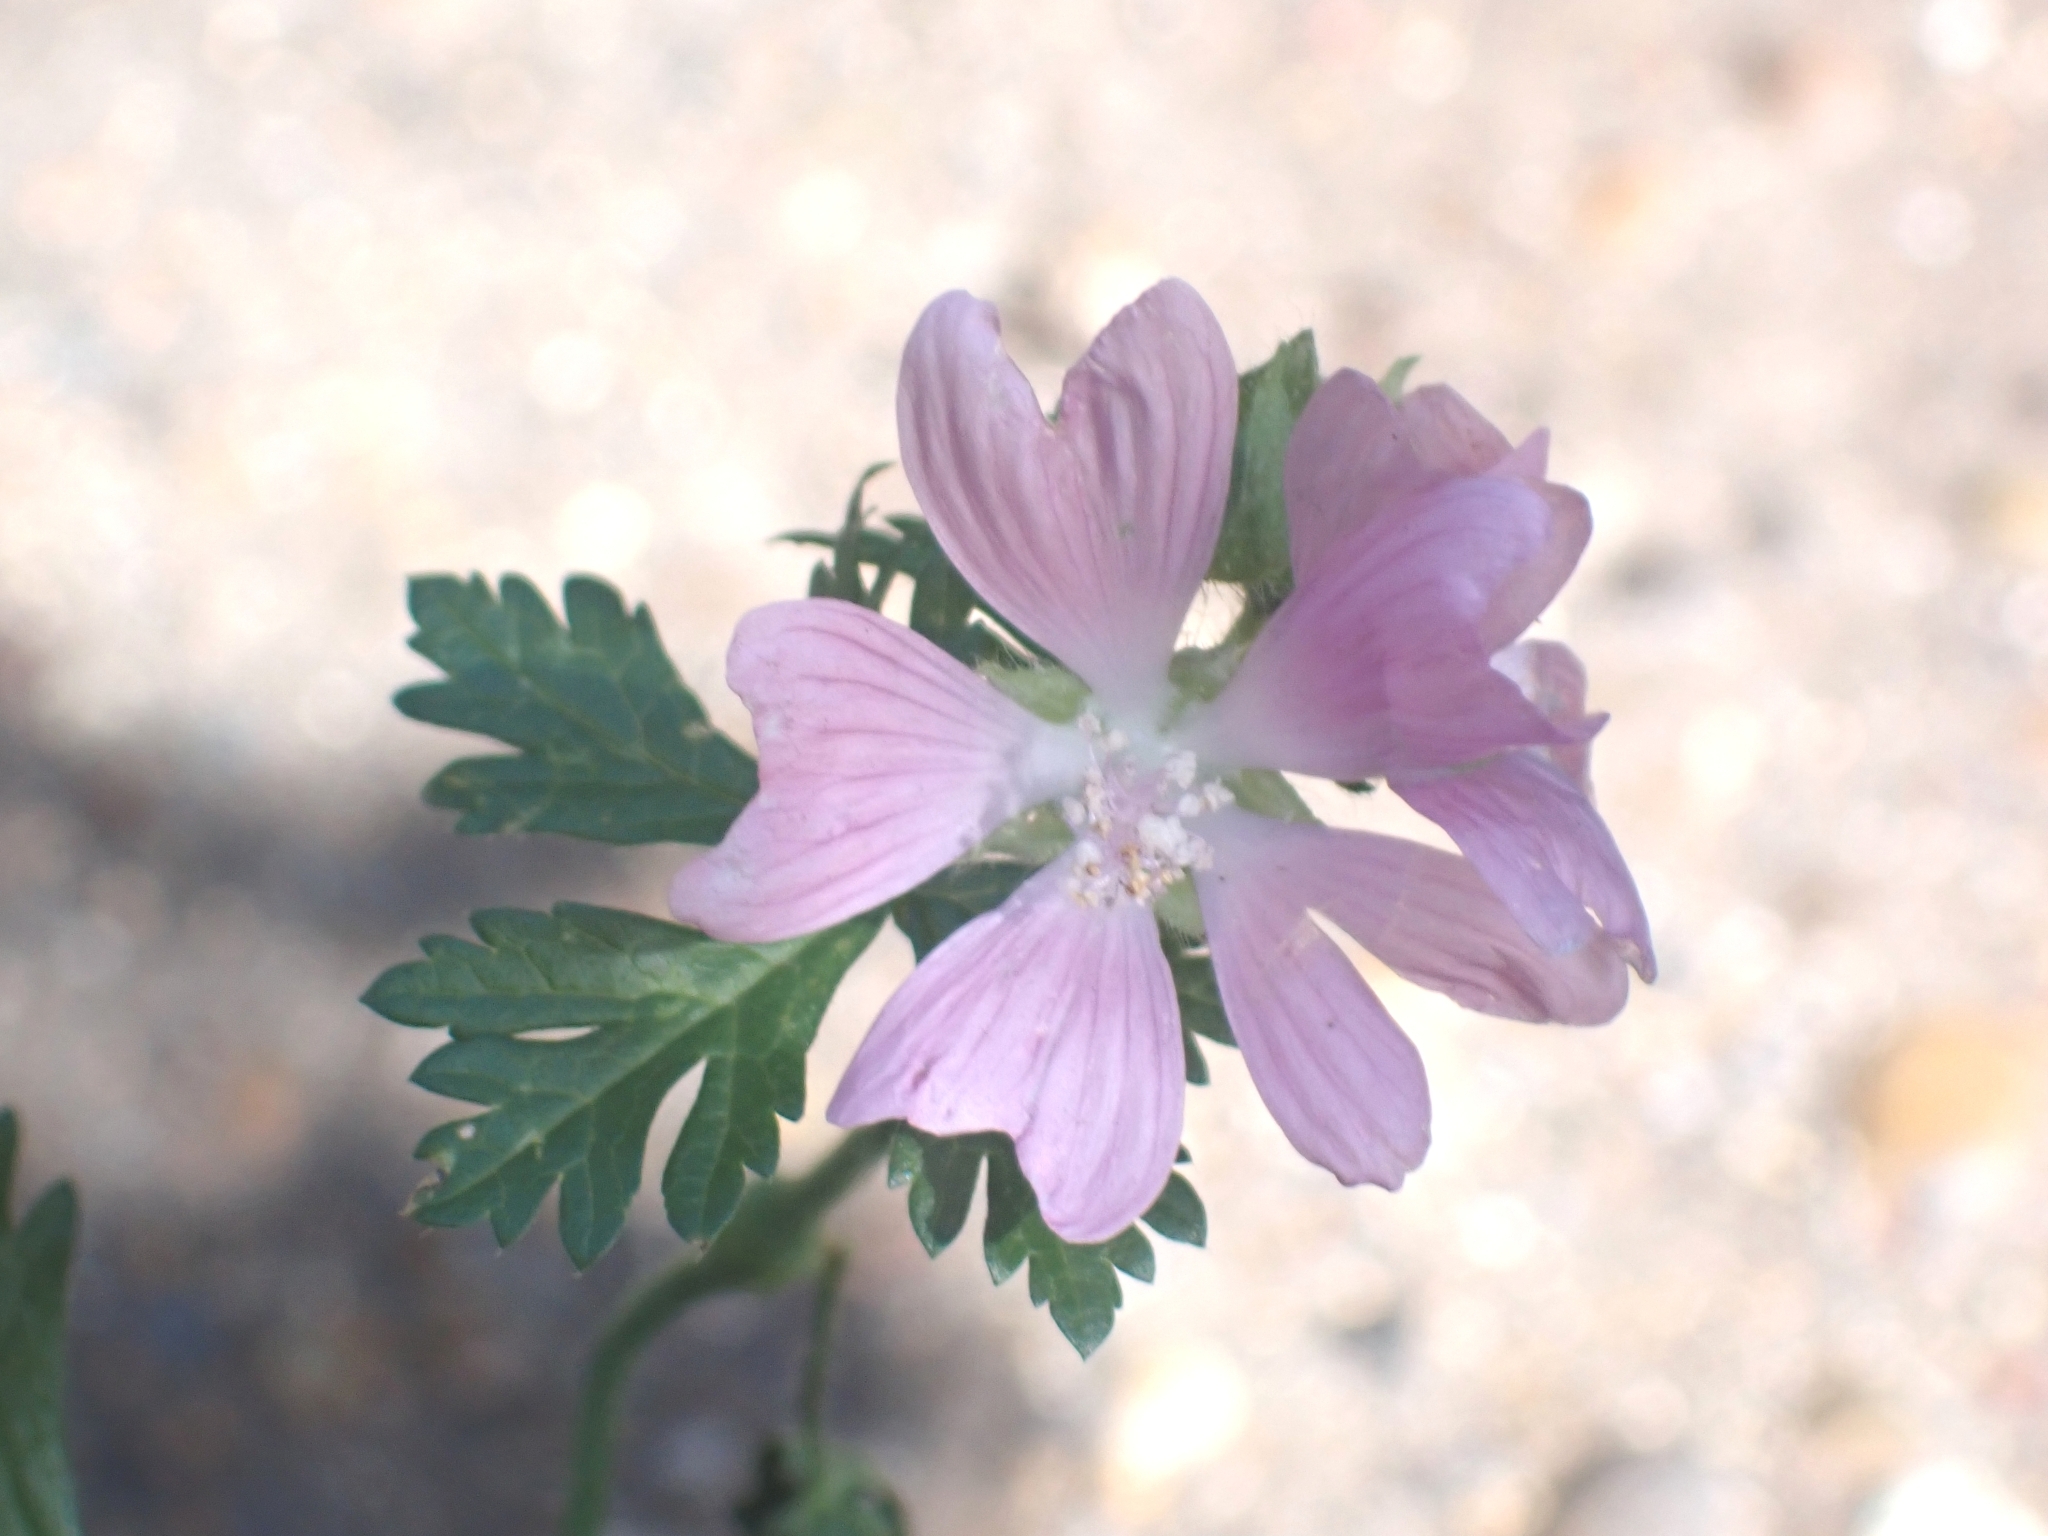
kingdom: Plantae
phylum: Tracheophyta
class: Magnoliopsida
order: Malvales
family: Malvaceae
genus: Malva
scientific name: Malva moschata
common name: Musk mallow
